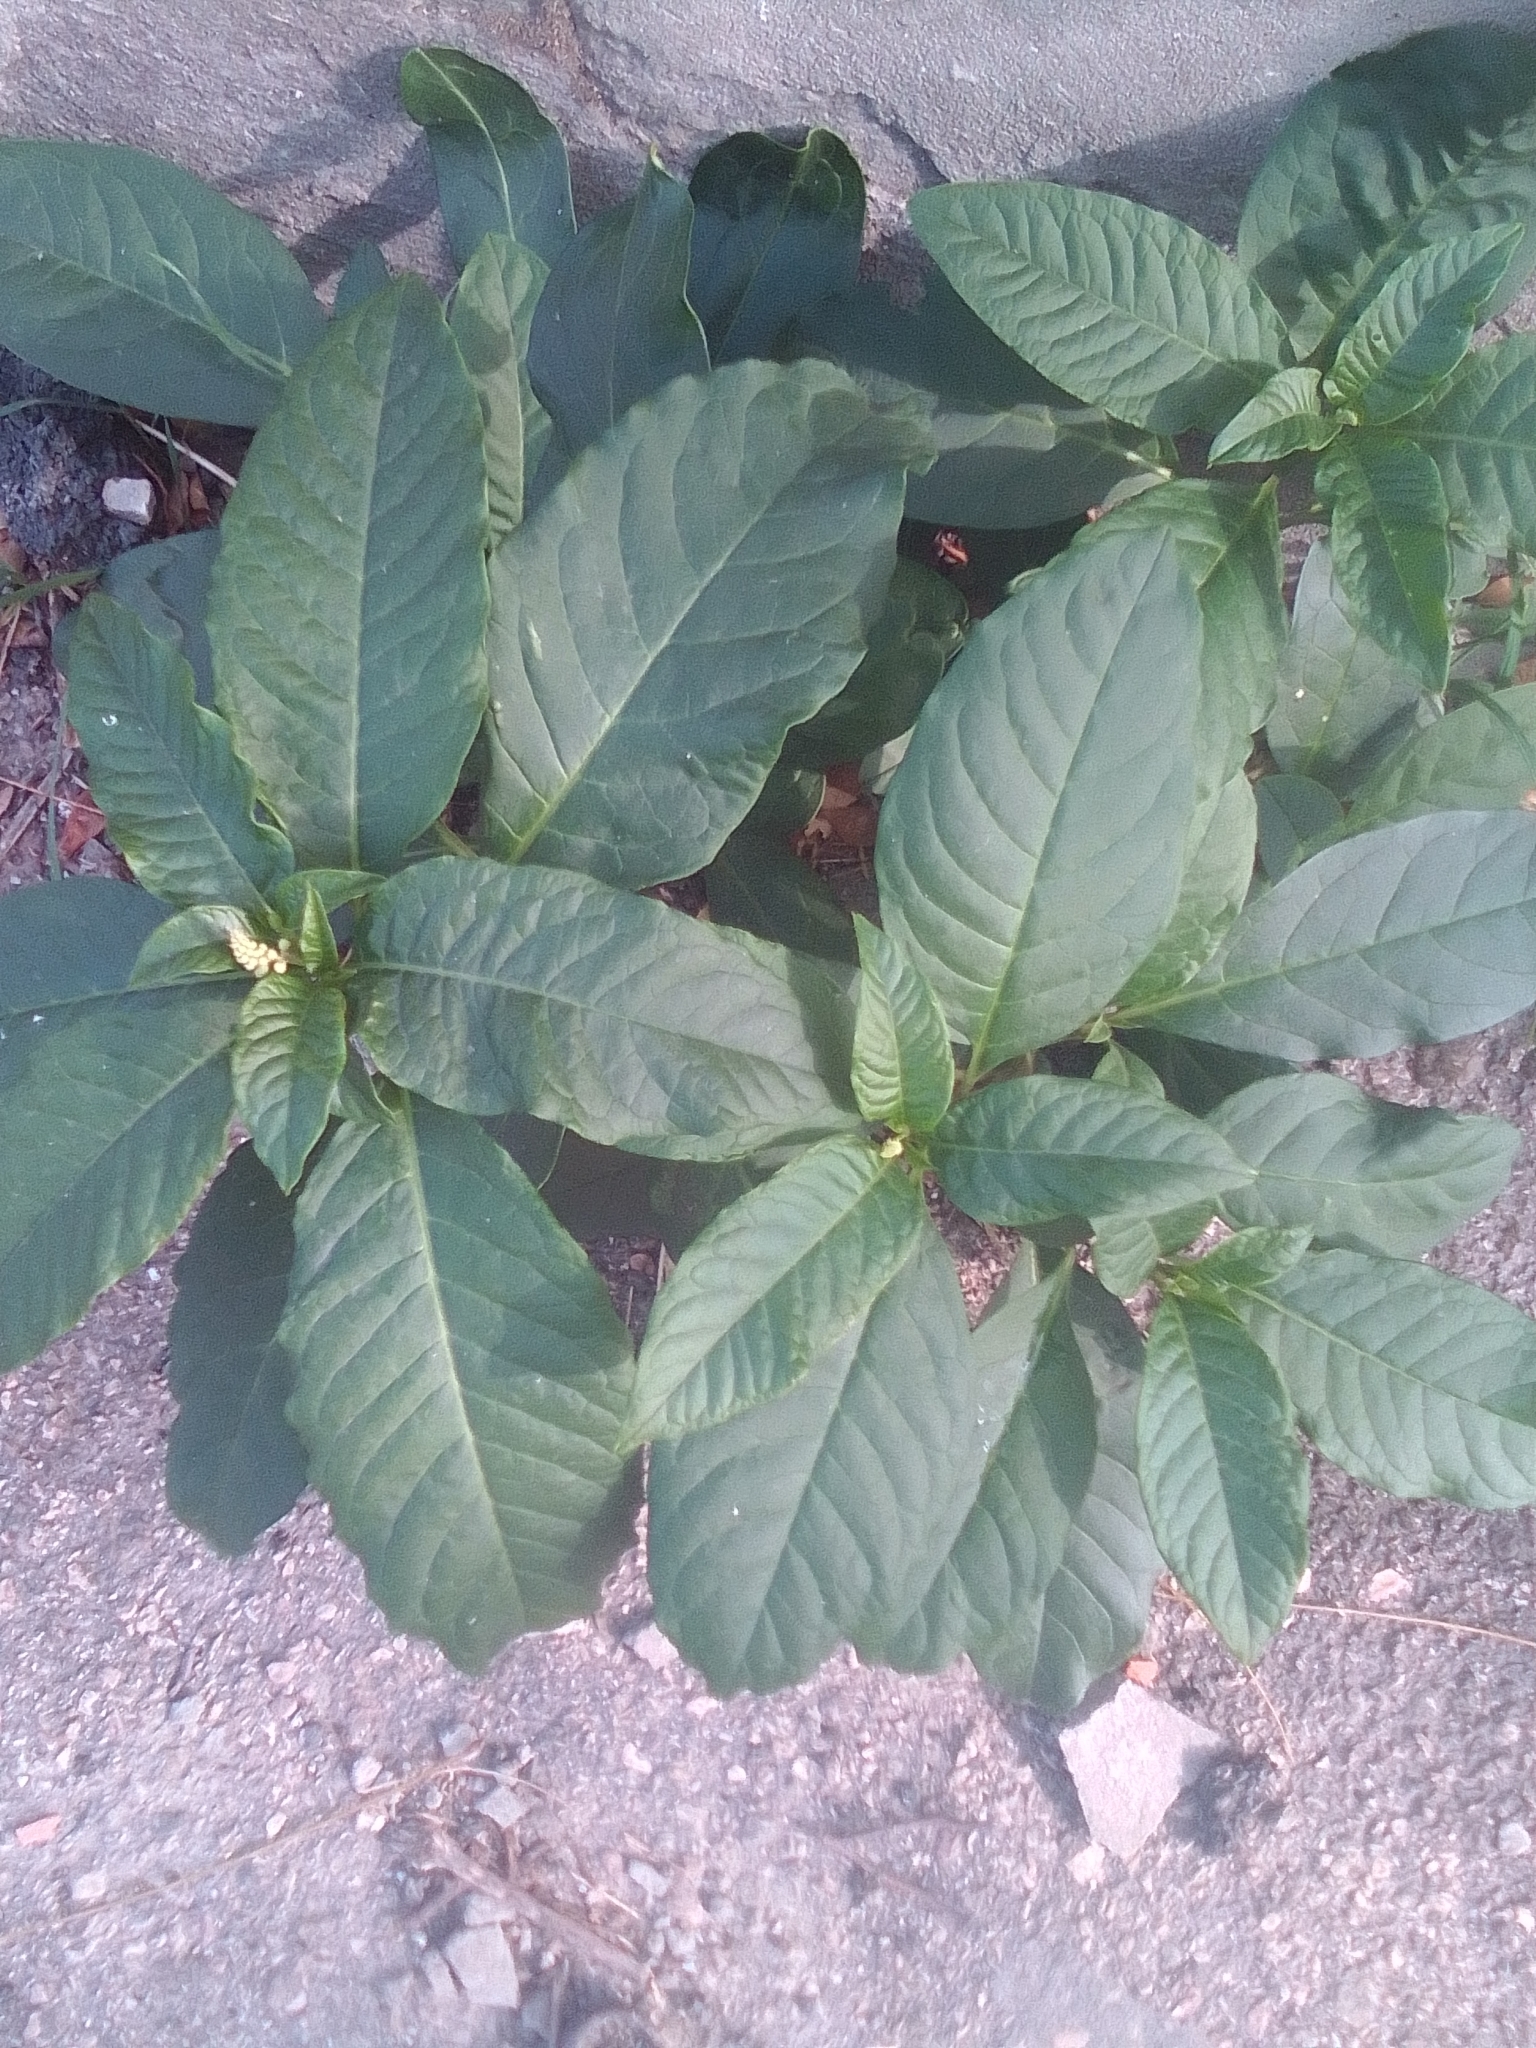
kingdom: Plantae
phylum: Tracheophyta
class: Magnoliopsida
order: Caryophyllales
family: Phytolaccaceae
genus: Phytolacca
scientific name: Phytolacca americana
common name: American pokeweed
